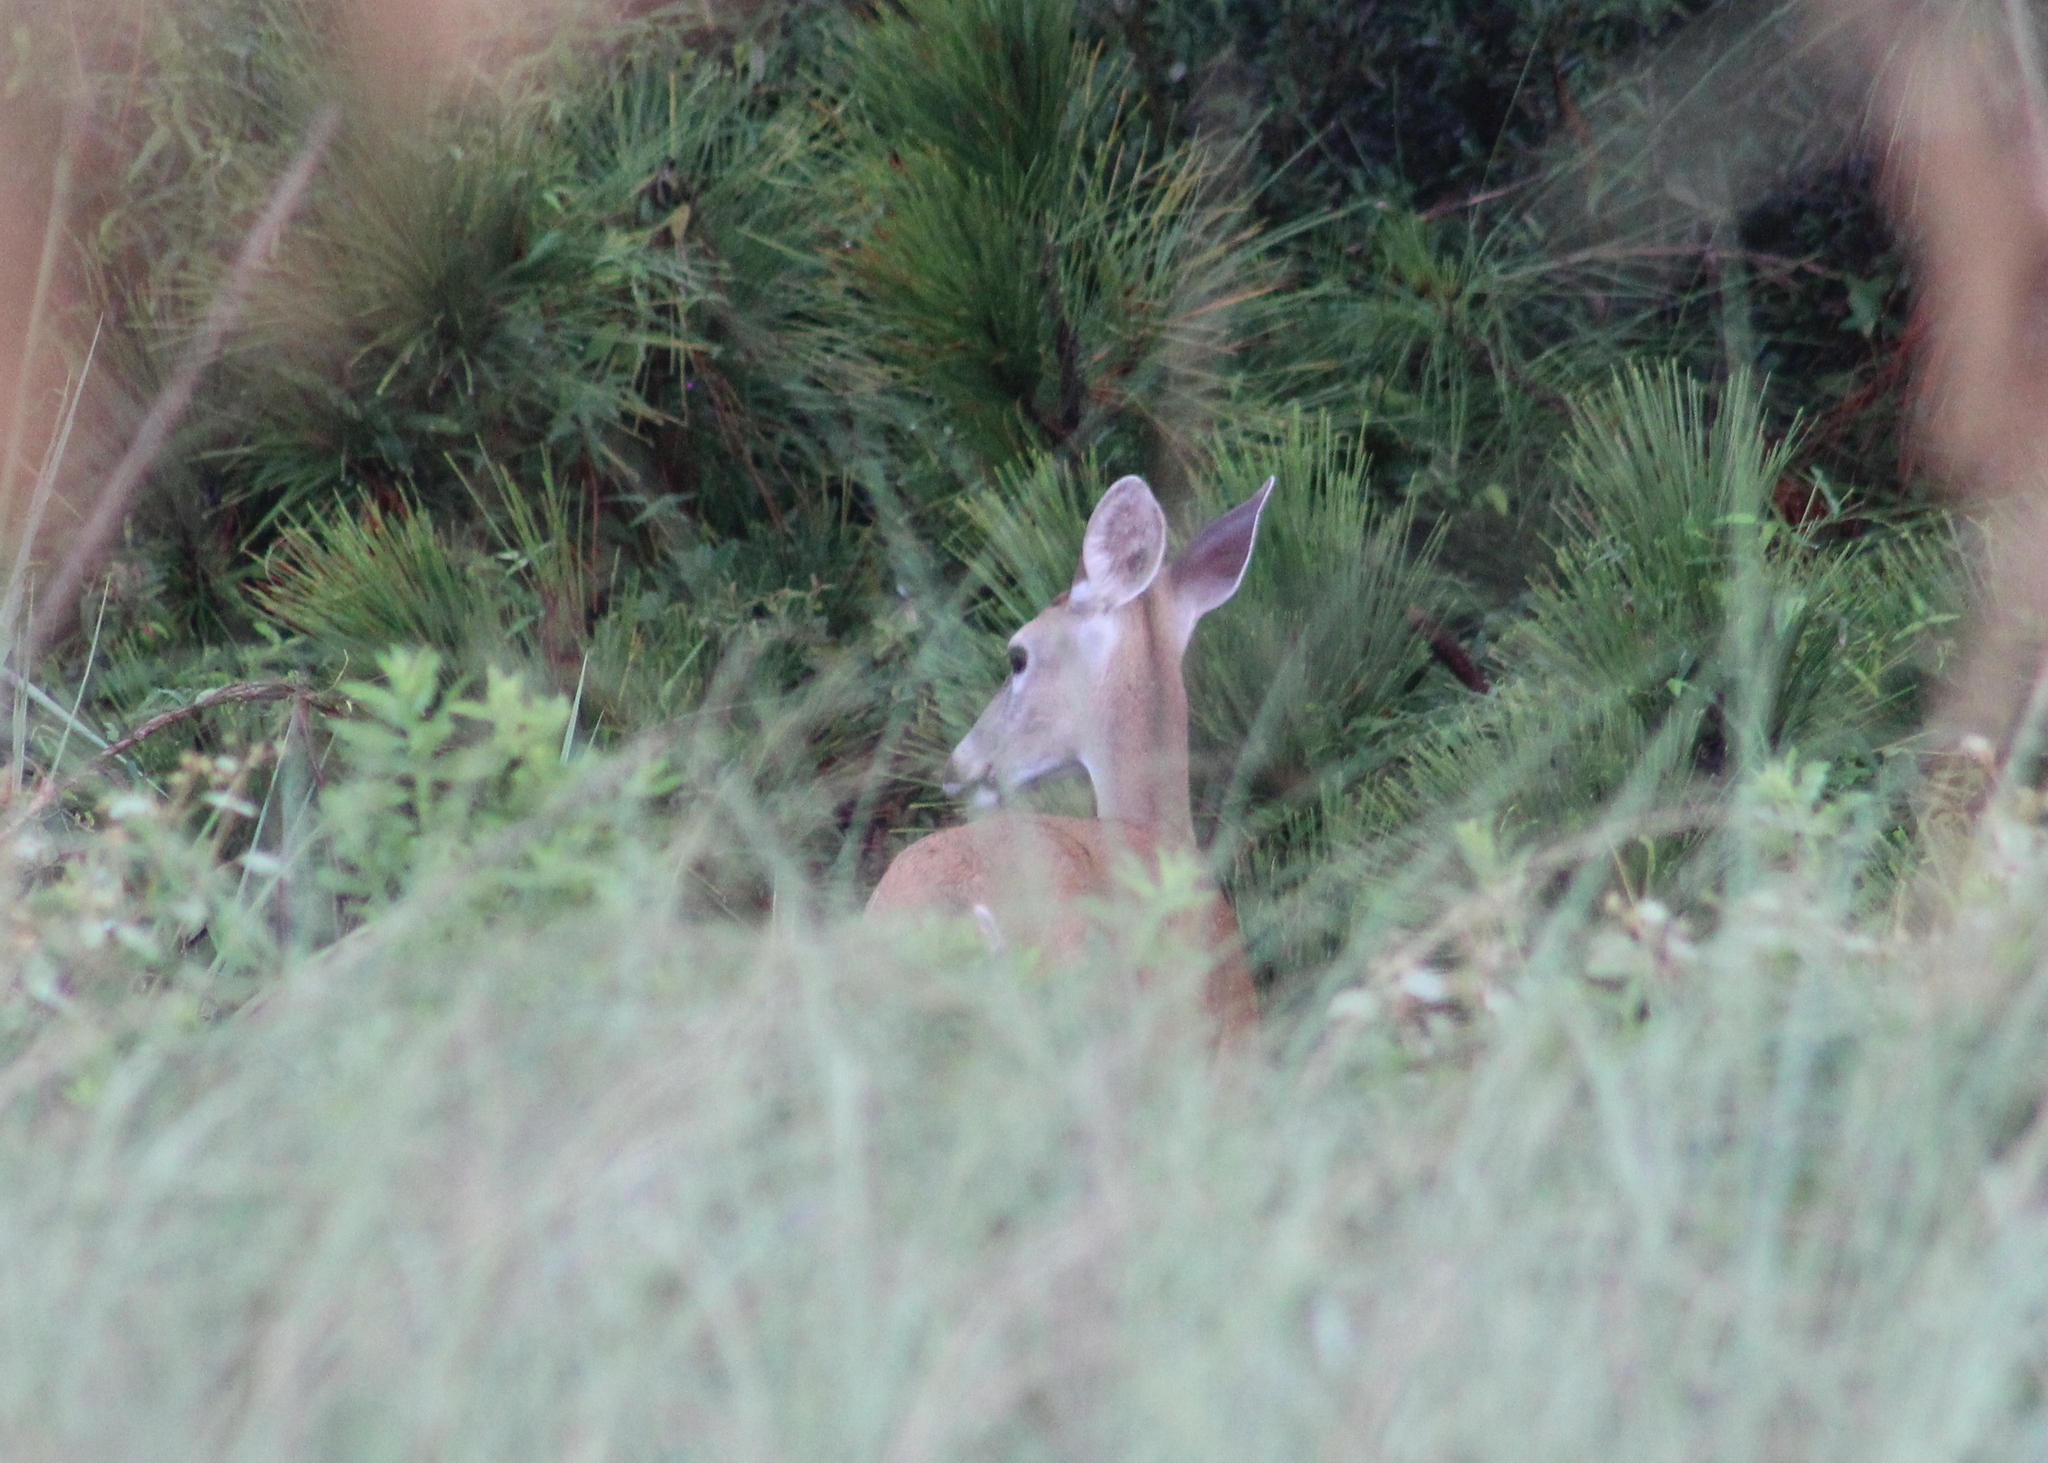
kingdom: Animalia
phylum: Chordata
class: Mammalia
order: Artiodactyla
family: Cervidae
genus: Odocoileus
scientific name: Odocoileus virginianus
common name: White-tailed deer
